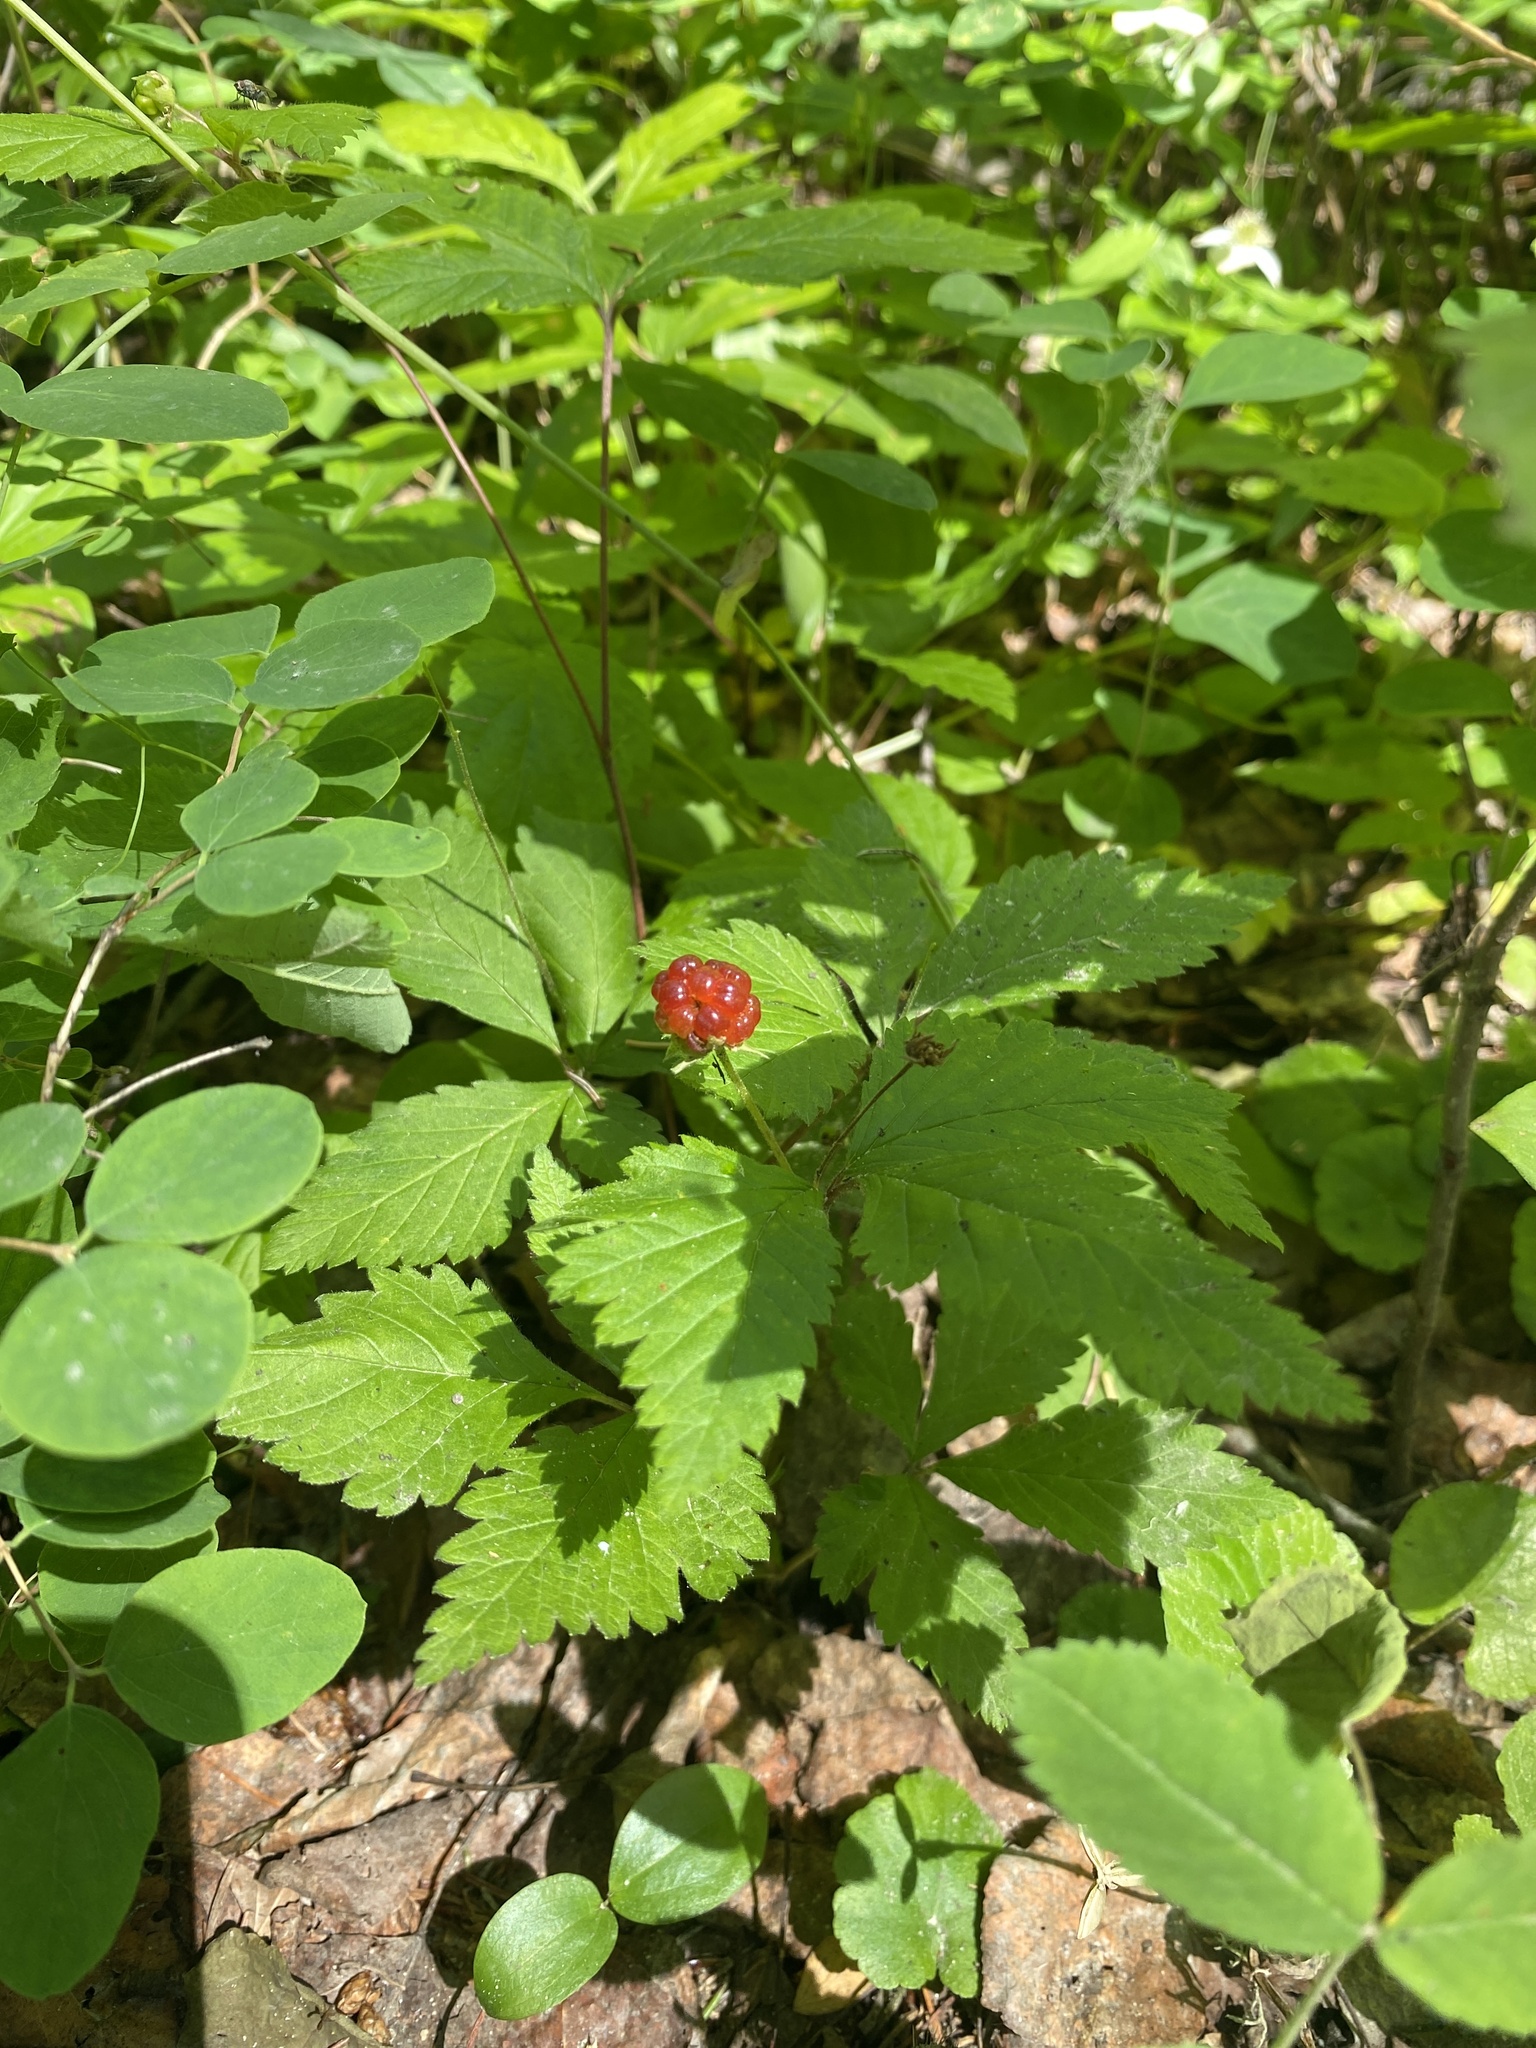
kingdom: Plantae
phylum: Tracheophyta
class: Magnoliopsida
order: Rosales
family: Rosaceae
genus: Rubus
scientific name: Rubus pubescens
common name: Dwarf raspberry
